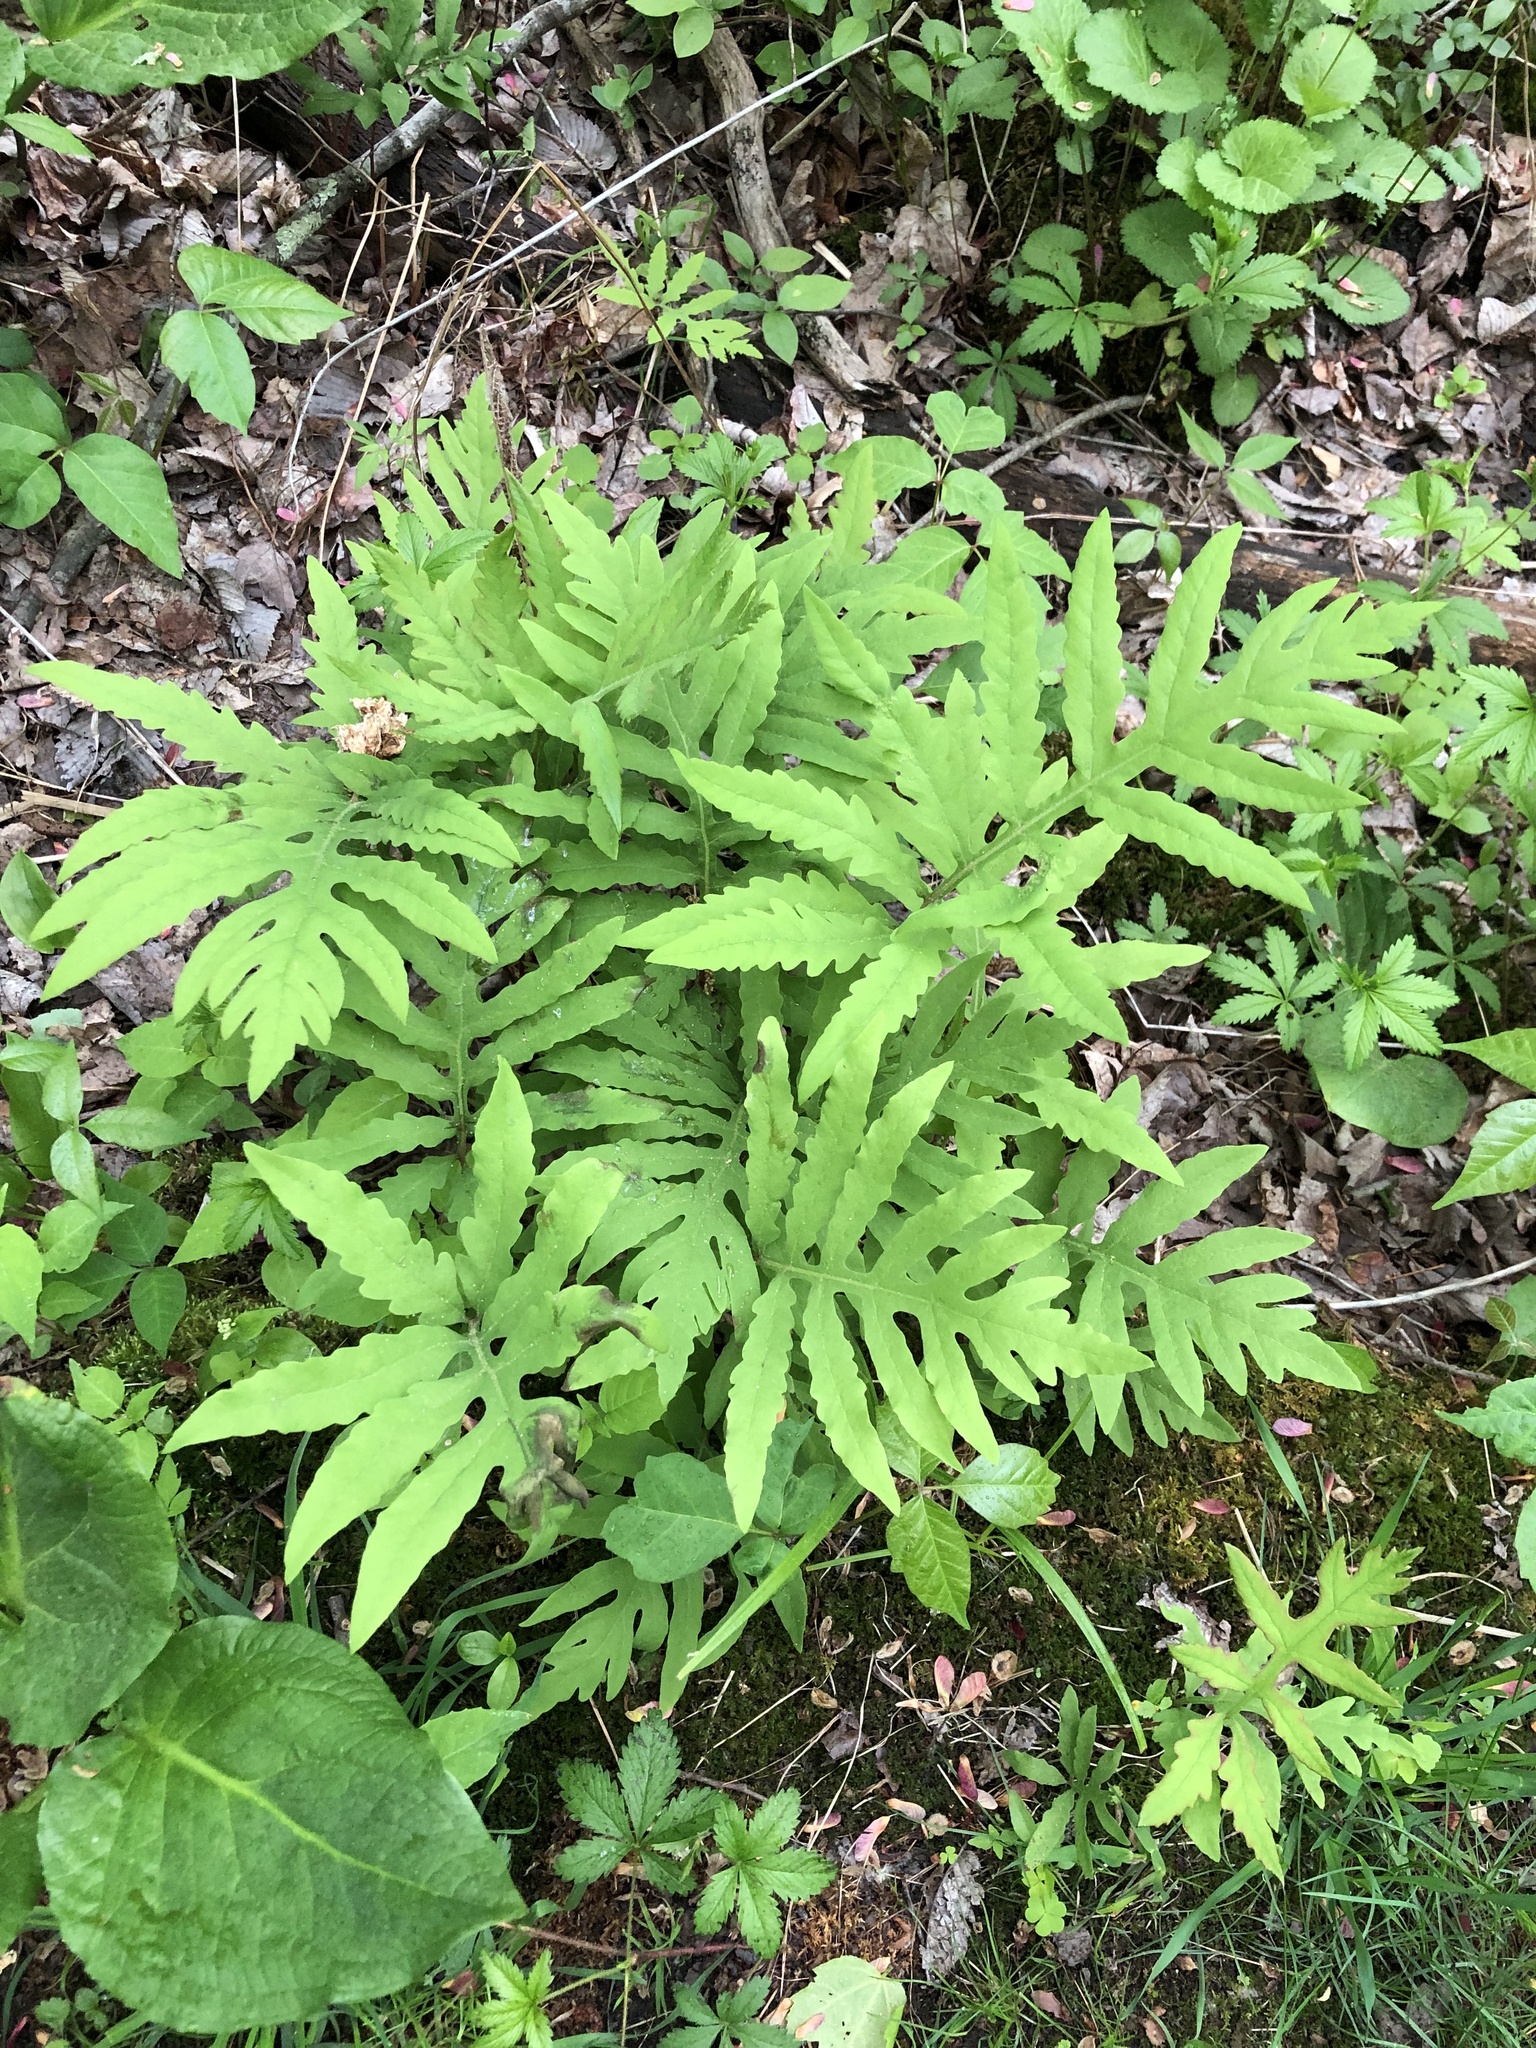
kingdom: Plantae
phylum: Tracheophyta
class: Polypodiopsida
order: Polypodiales
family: Onocleaceae
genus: Onoclea
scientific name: Onoclea sensibilis
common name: Sensitive fern
